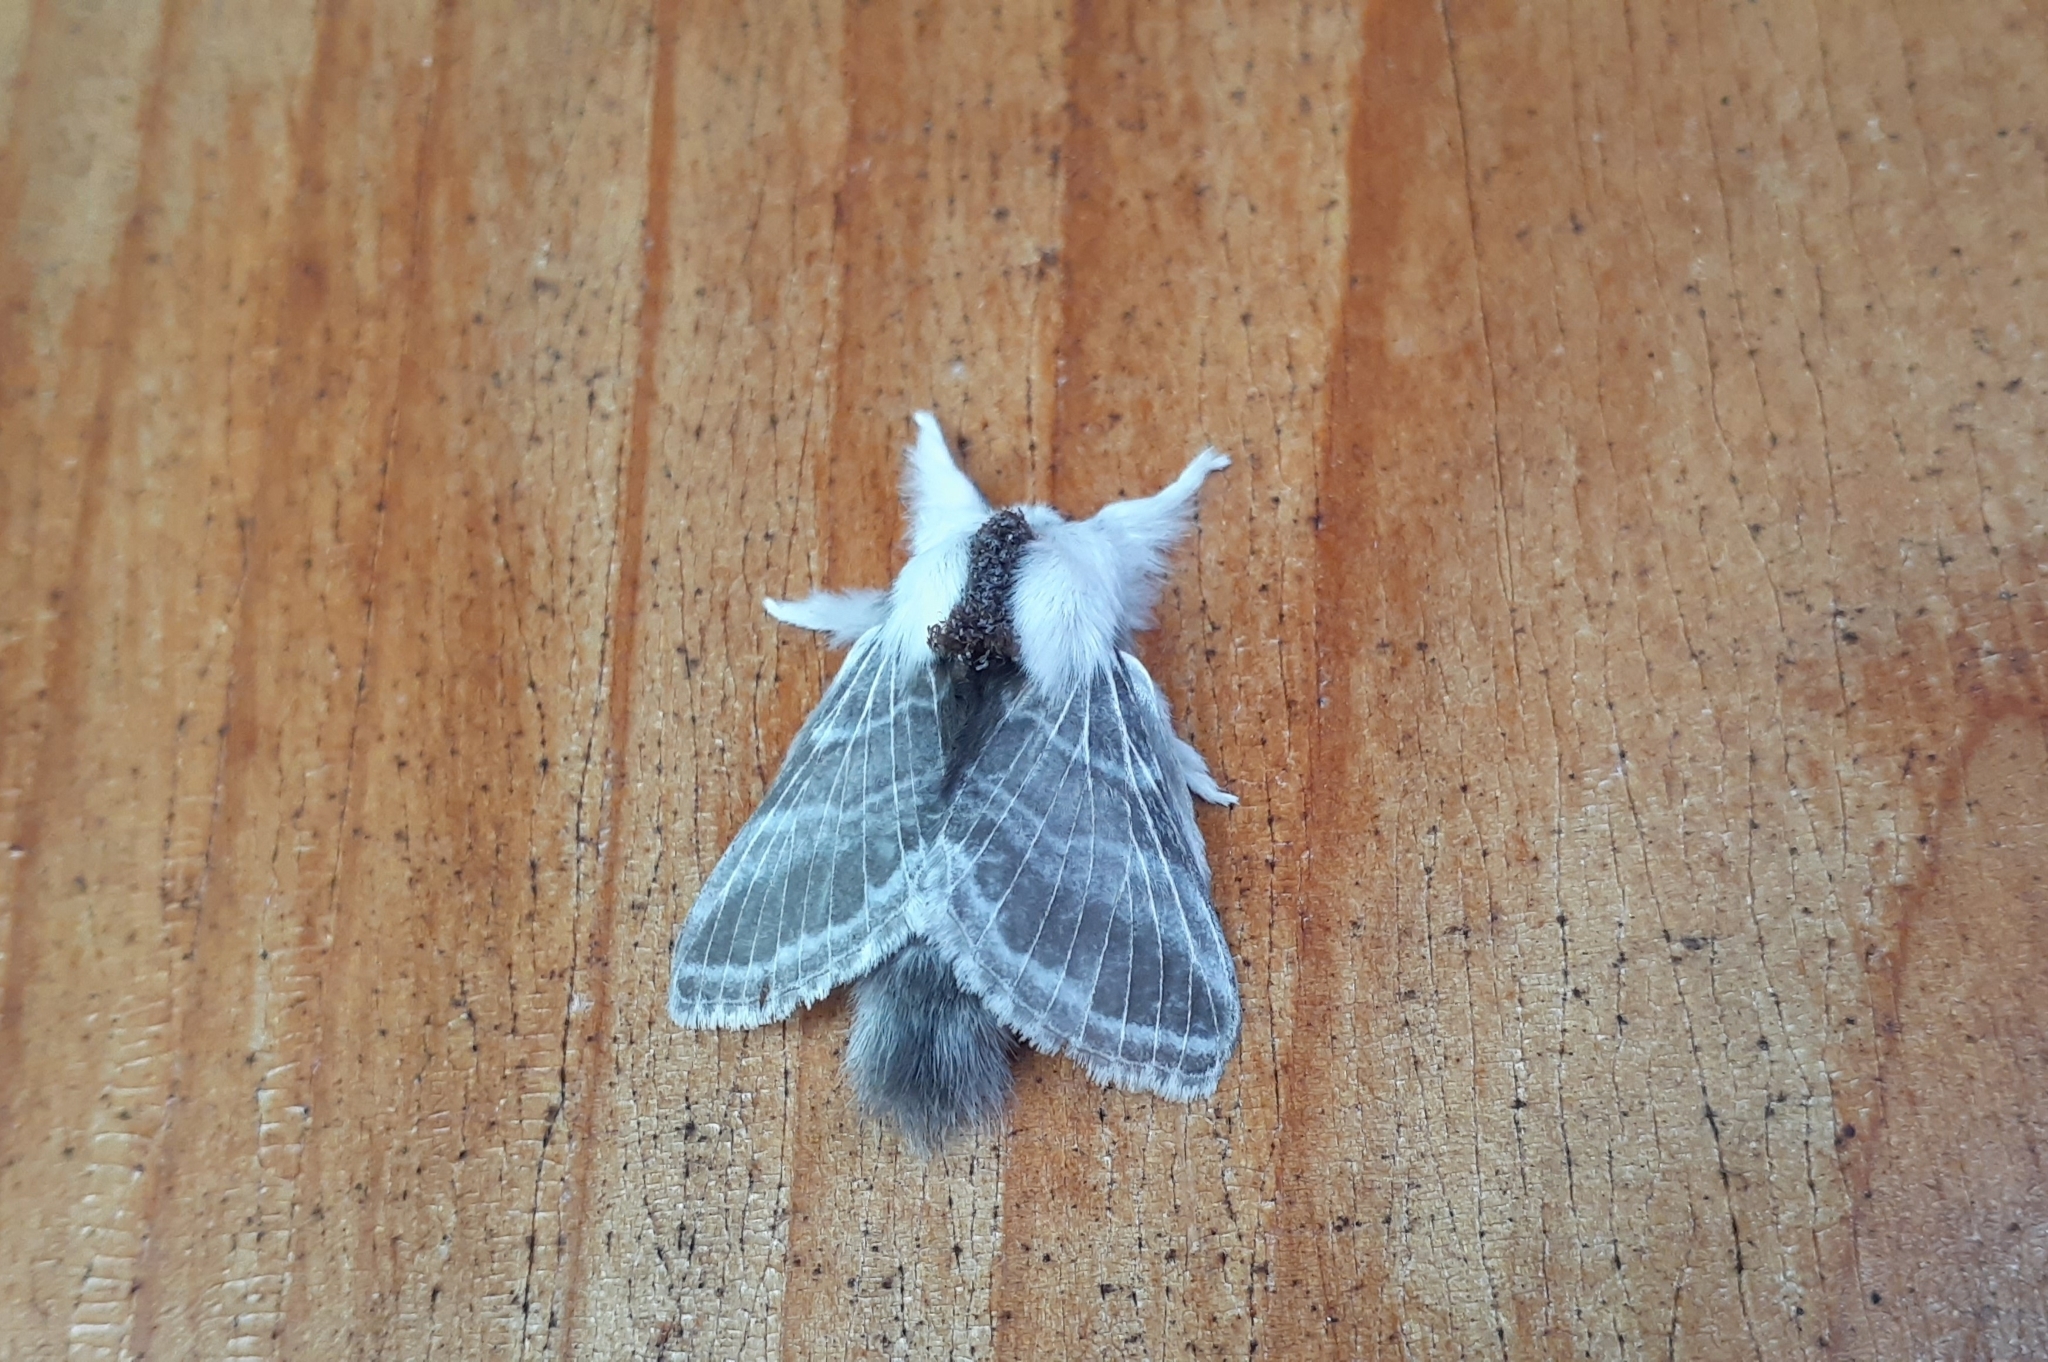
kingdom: Animalia
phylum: Arthropoda
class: Insecta
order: Lepidoptera
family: Lasiocampidae
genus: Tolype
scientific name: Tolype velleda
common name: Large tolype moth
